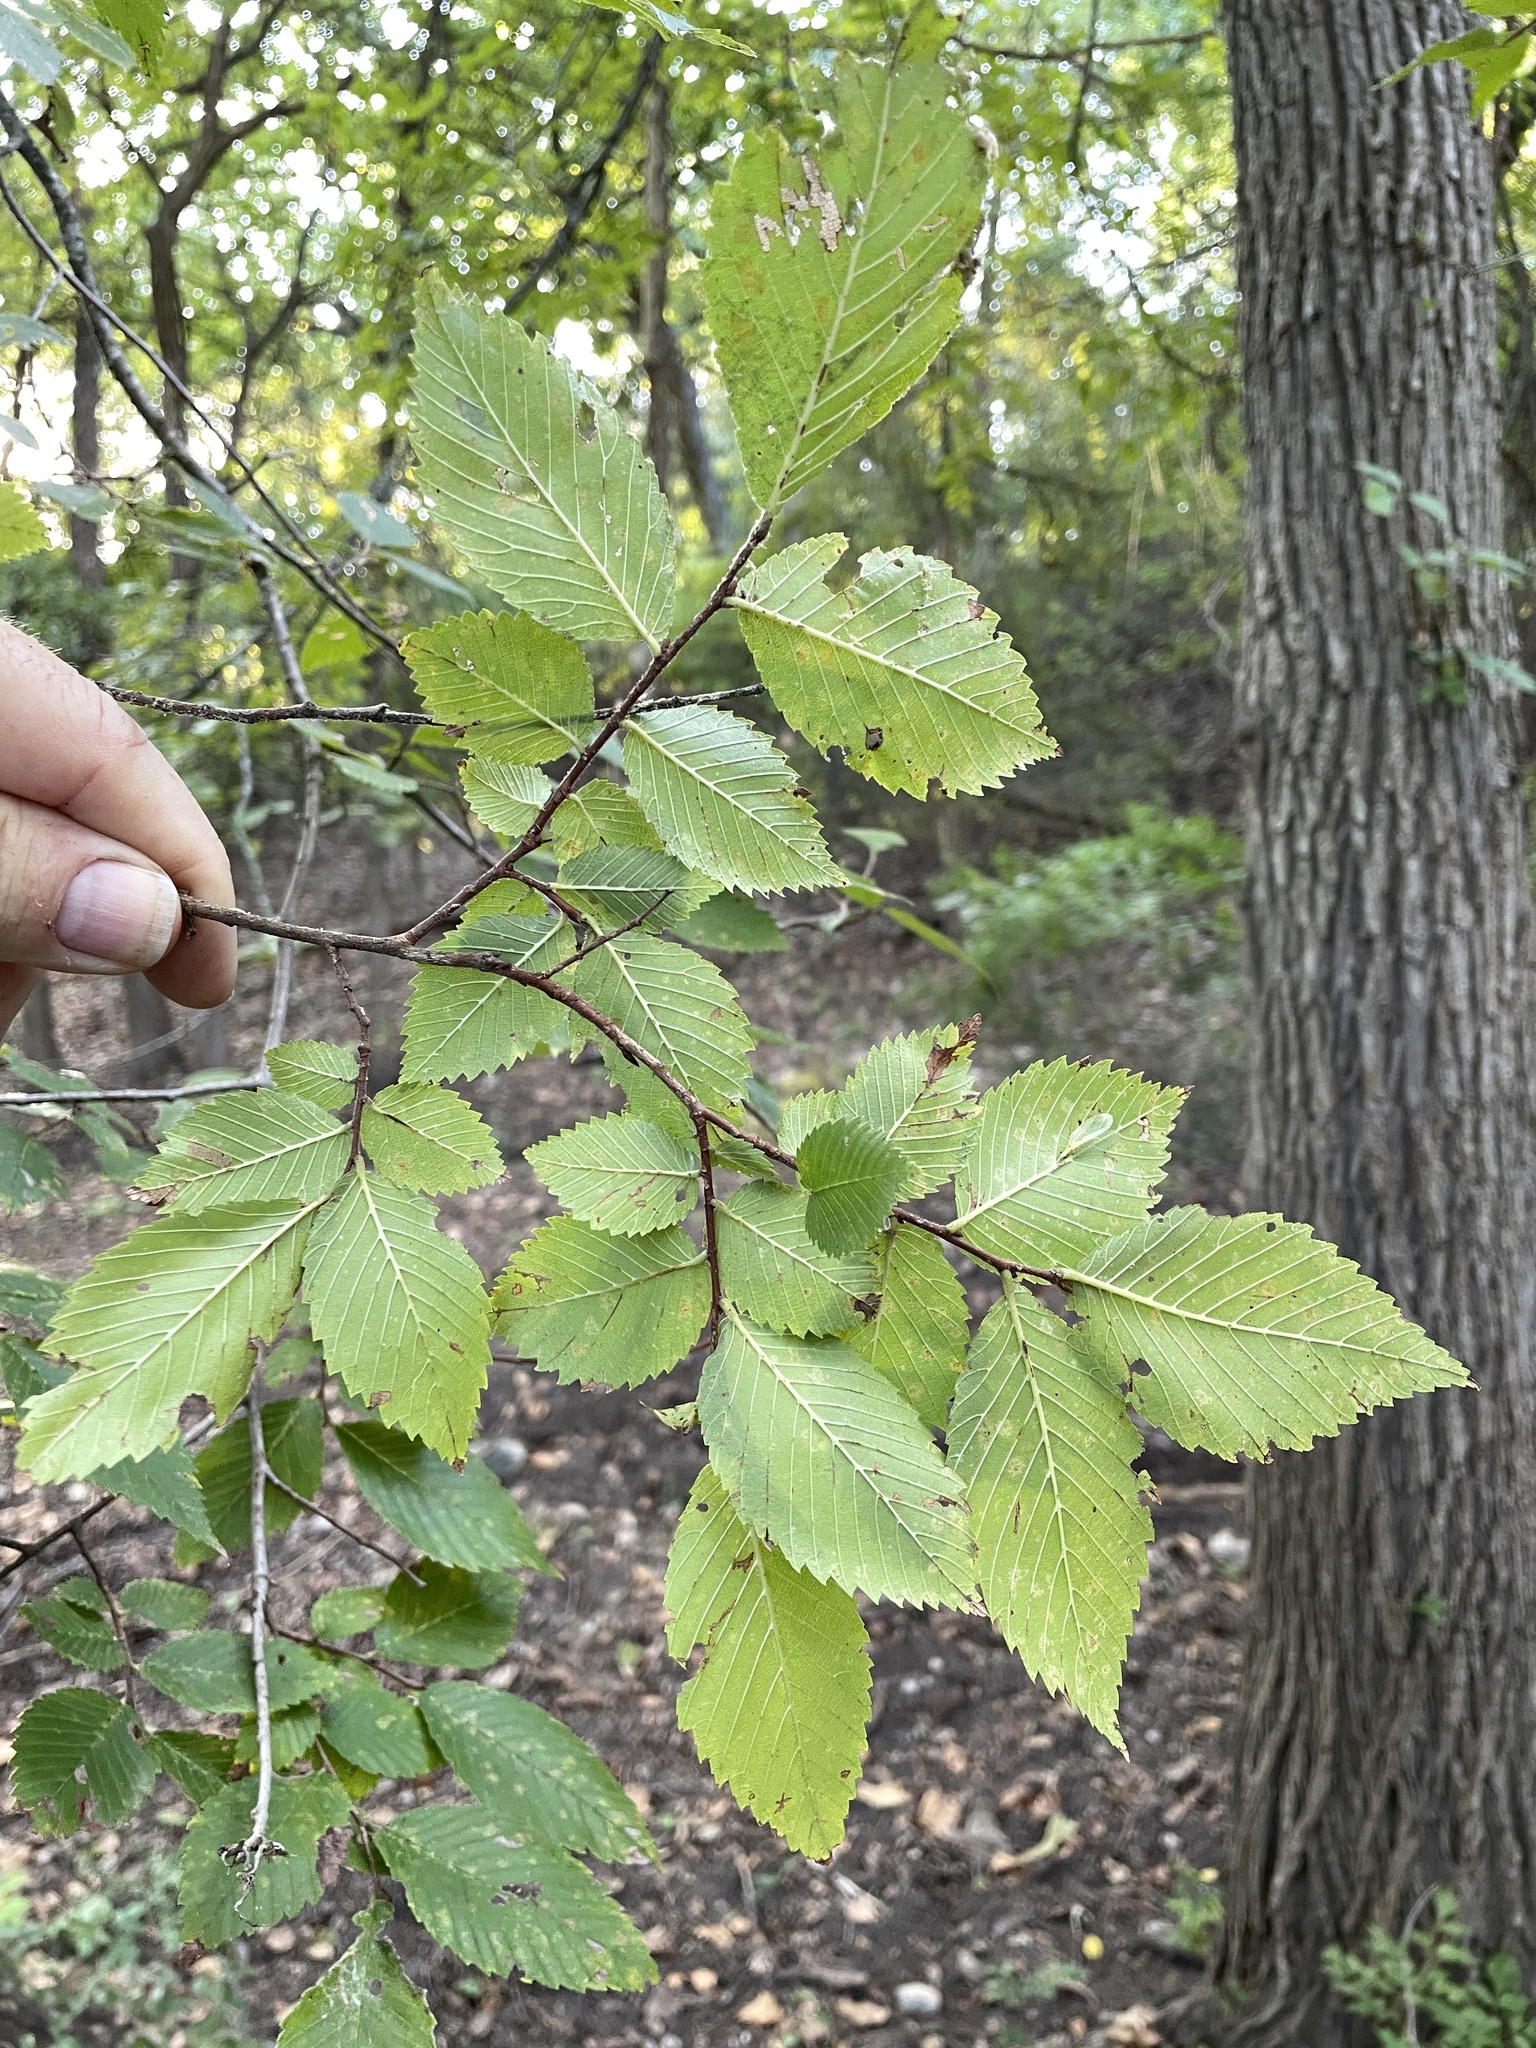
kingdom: Plantae
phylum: Tracheophyta
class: Magnoliopsida
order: Rosales
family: Ulmaceae
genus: Ulmus
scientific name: Ulmus americana
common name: American elm
